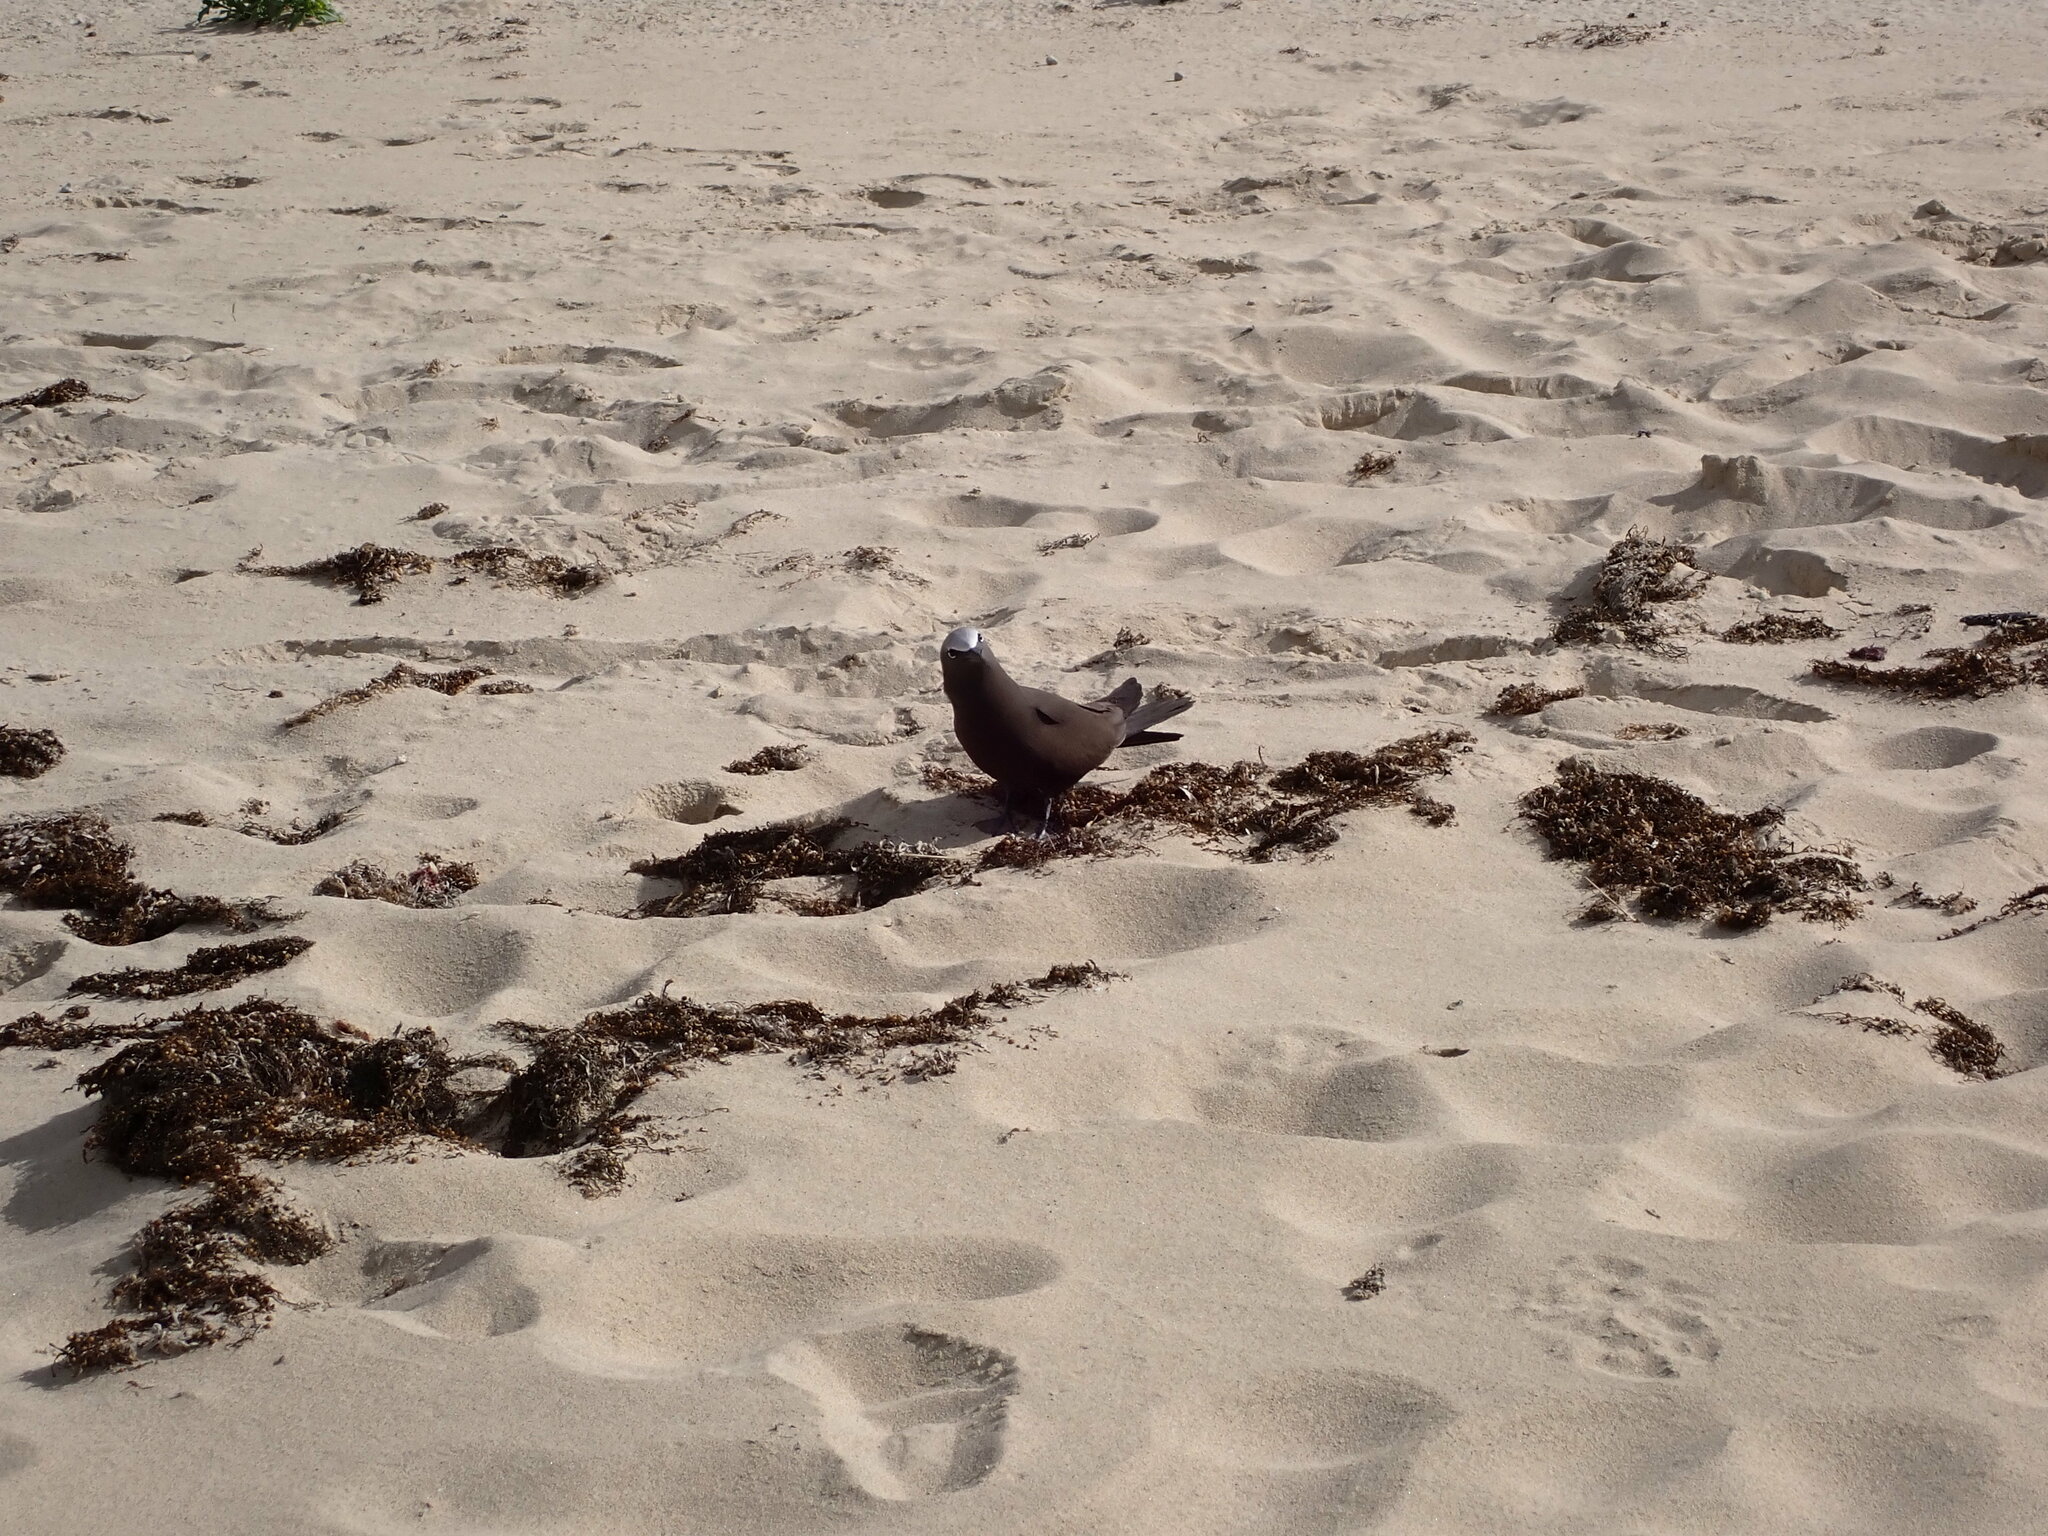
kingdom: Animalia
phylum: Chordata
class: Aves
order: Charadriiformes
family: Laridae
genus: Anous
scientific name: Anous stolidus
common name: Brown noddy
